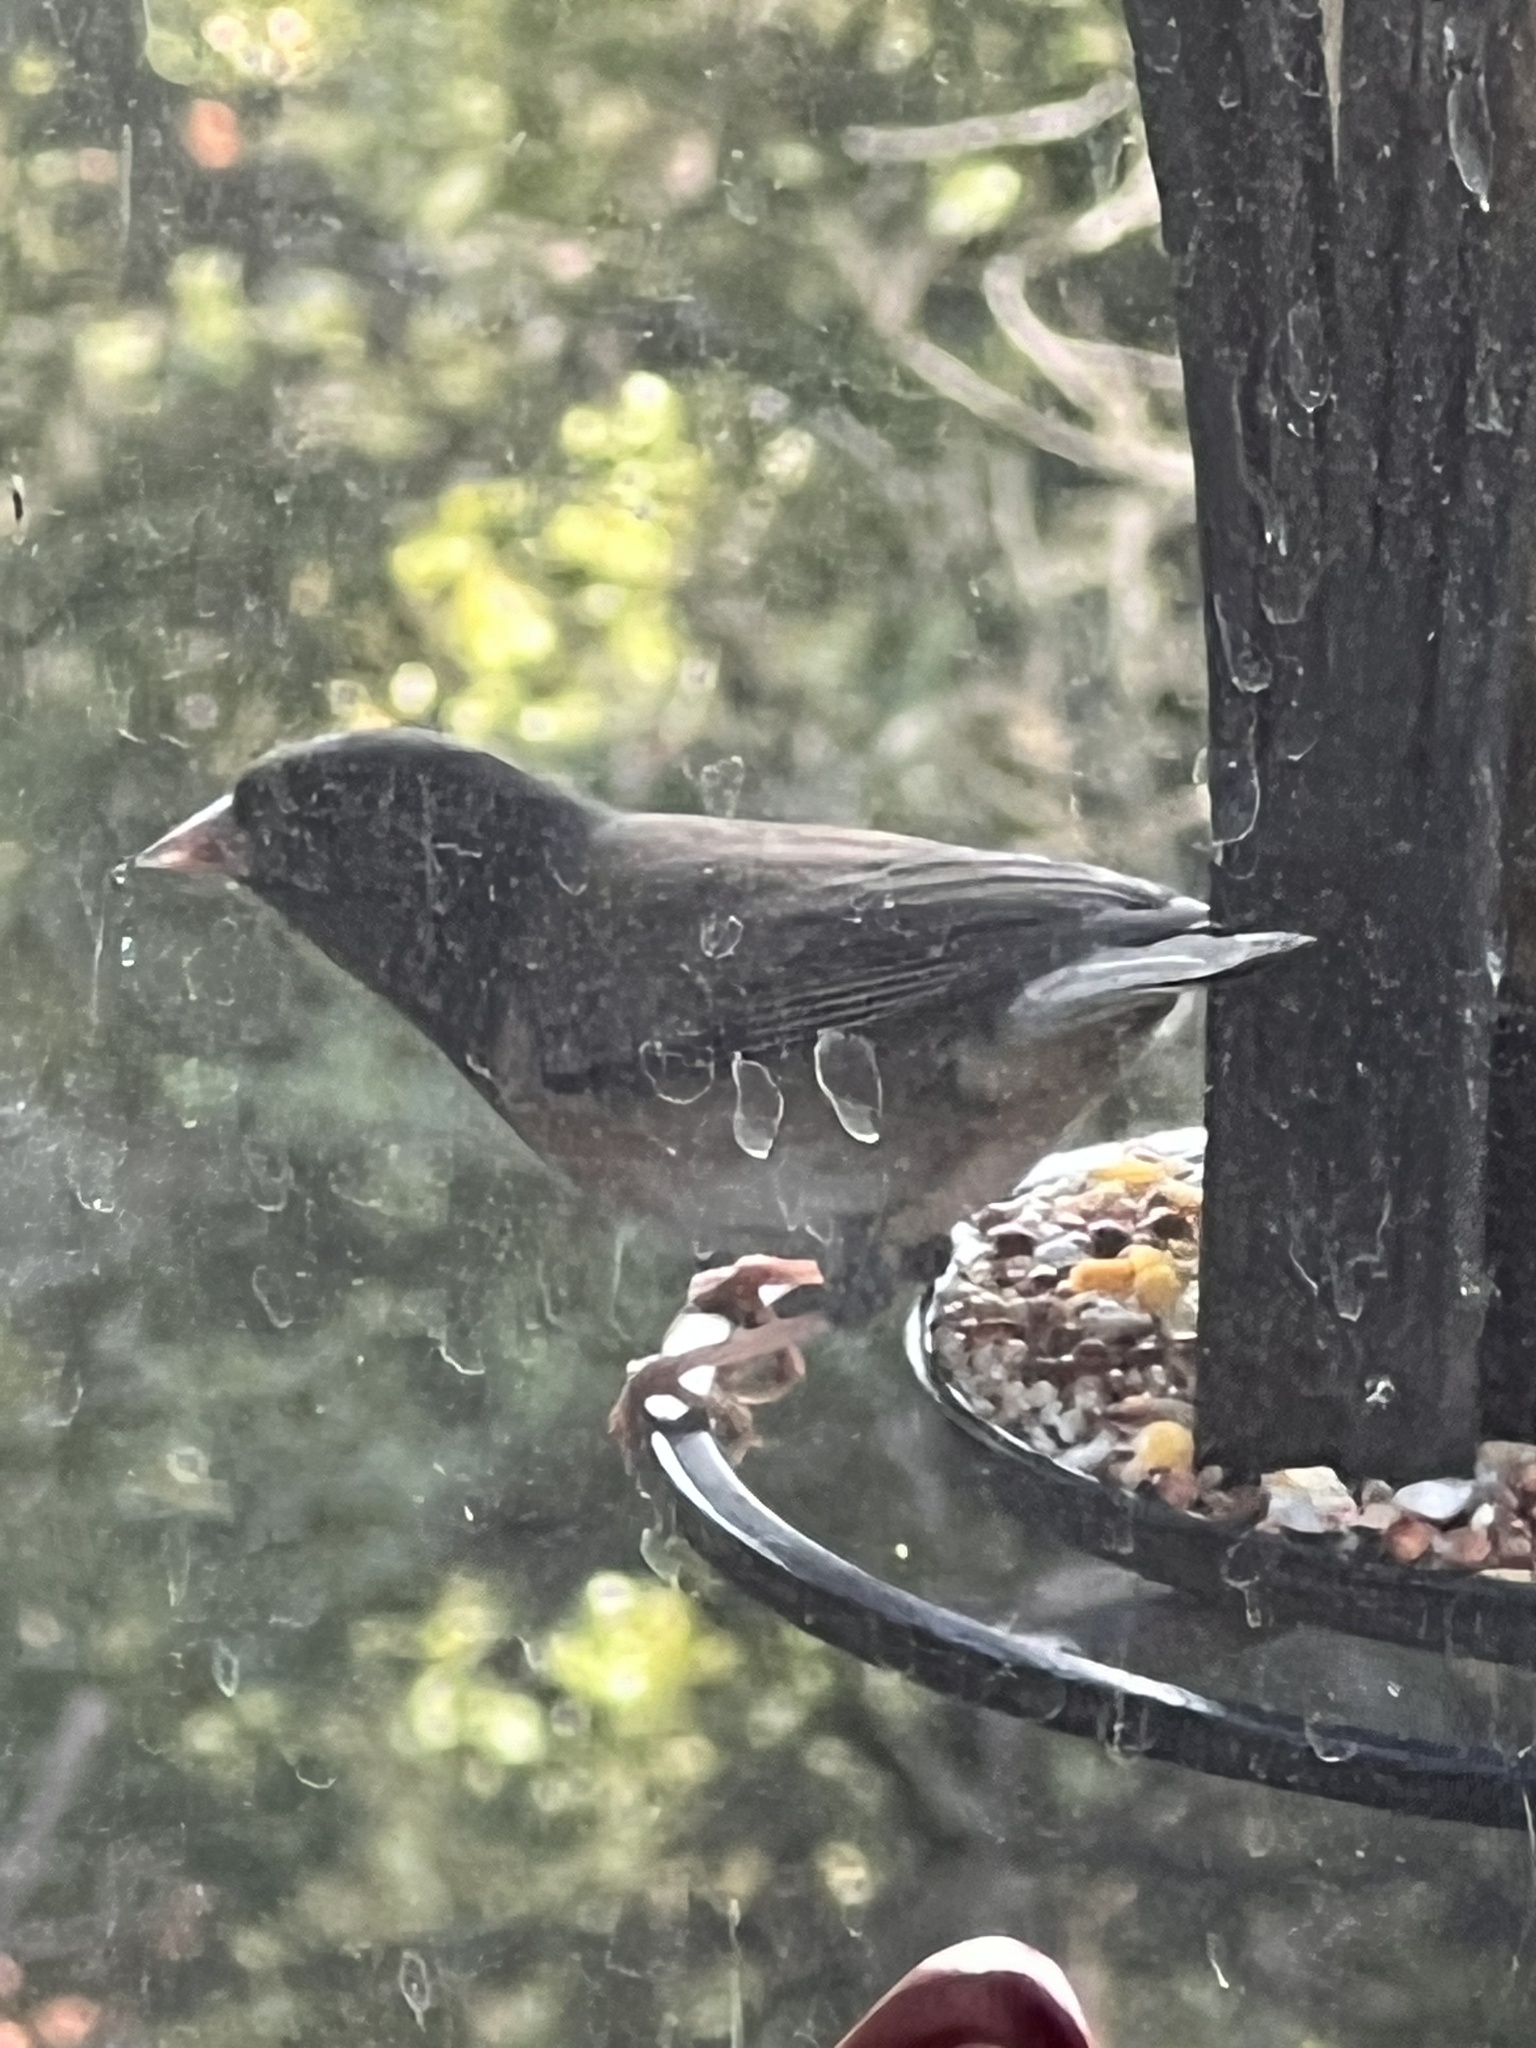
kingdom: Animalia
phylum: Chordata
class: Aves
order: Passeriformes
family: Passerellidae
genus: Junco
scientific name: Junco hyemalis
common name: Dark-eyed junco
